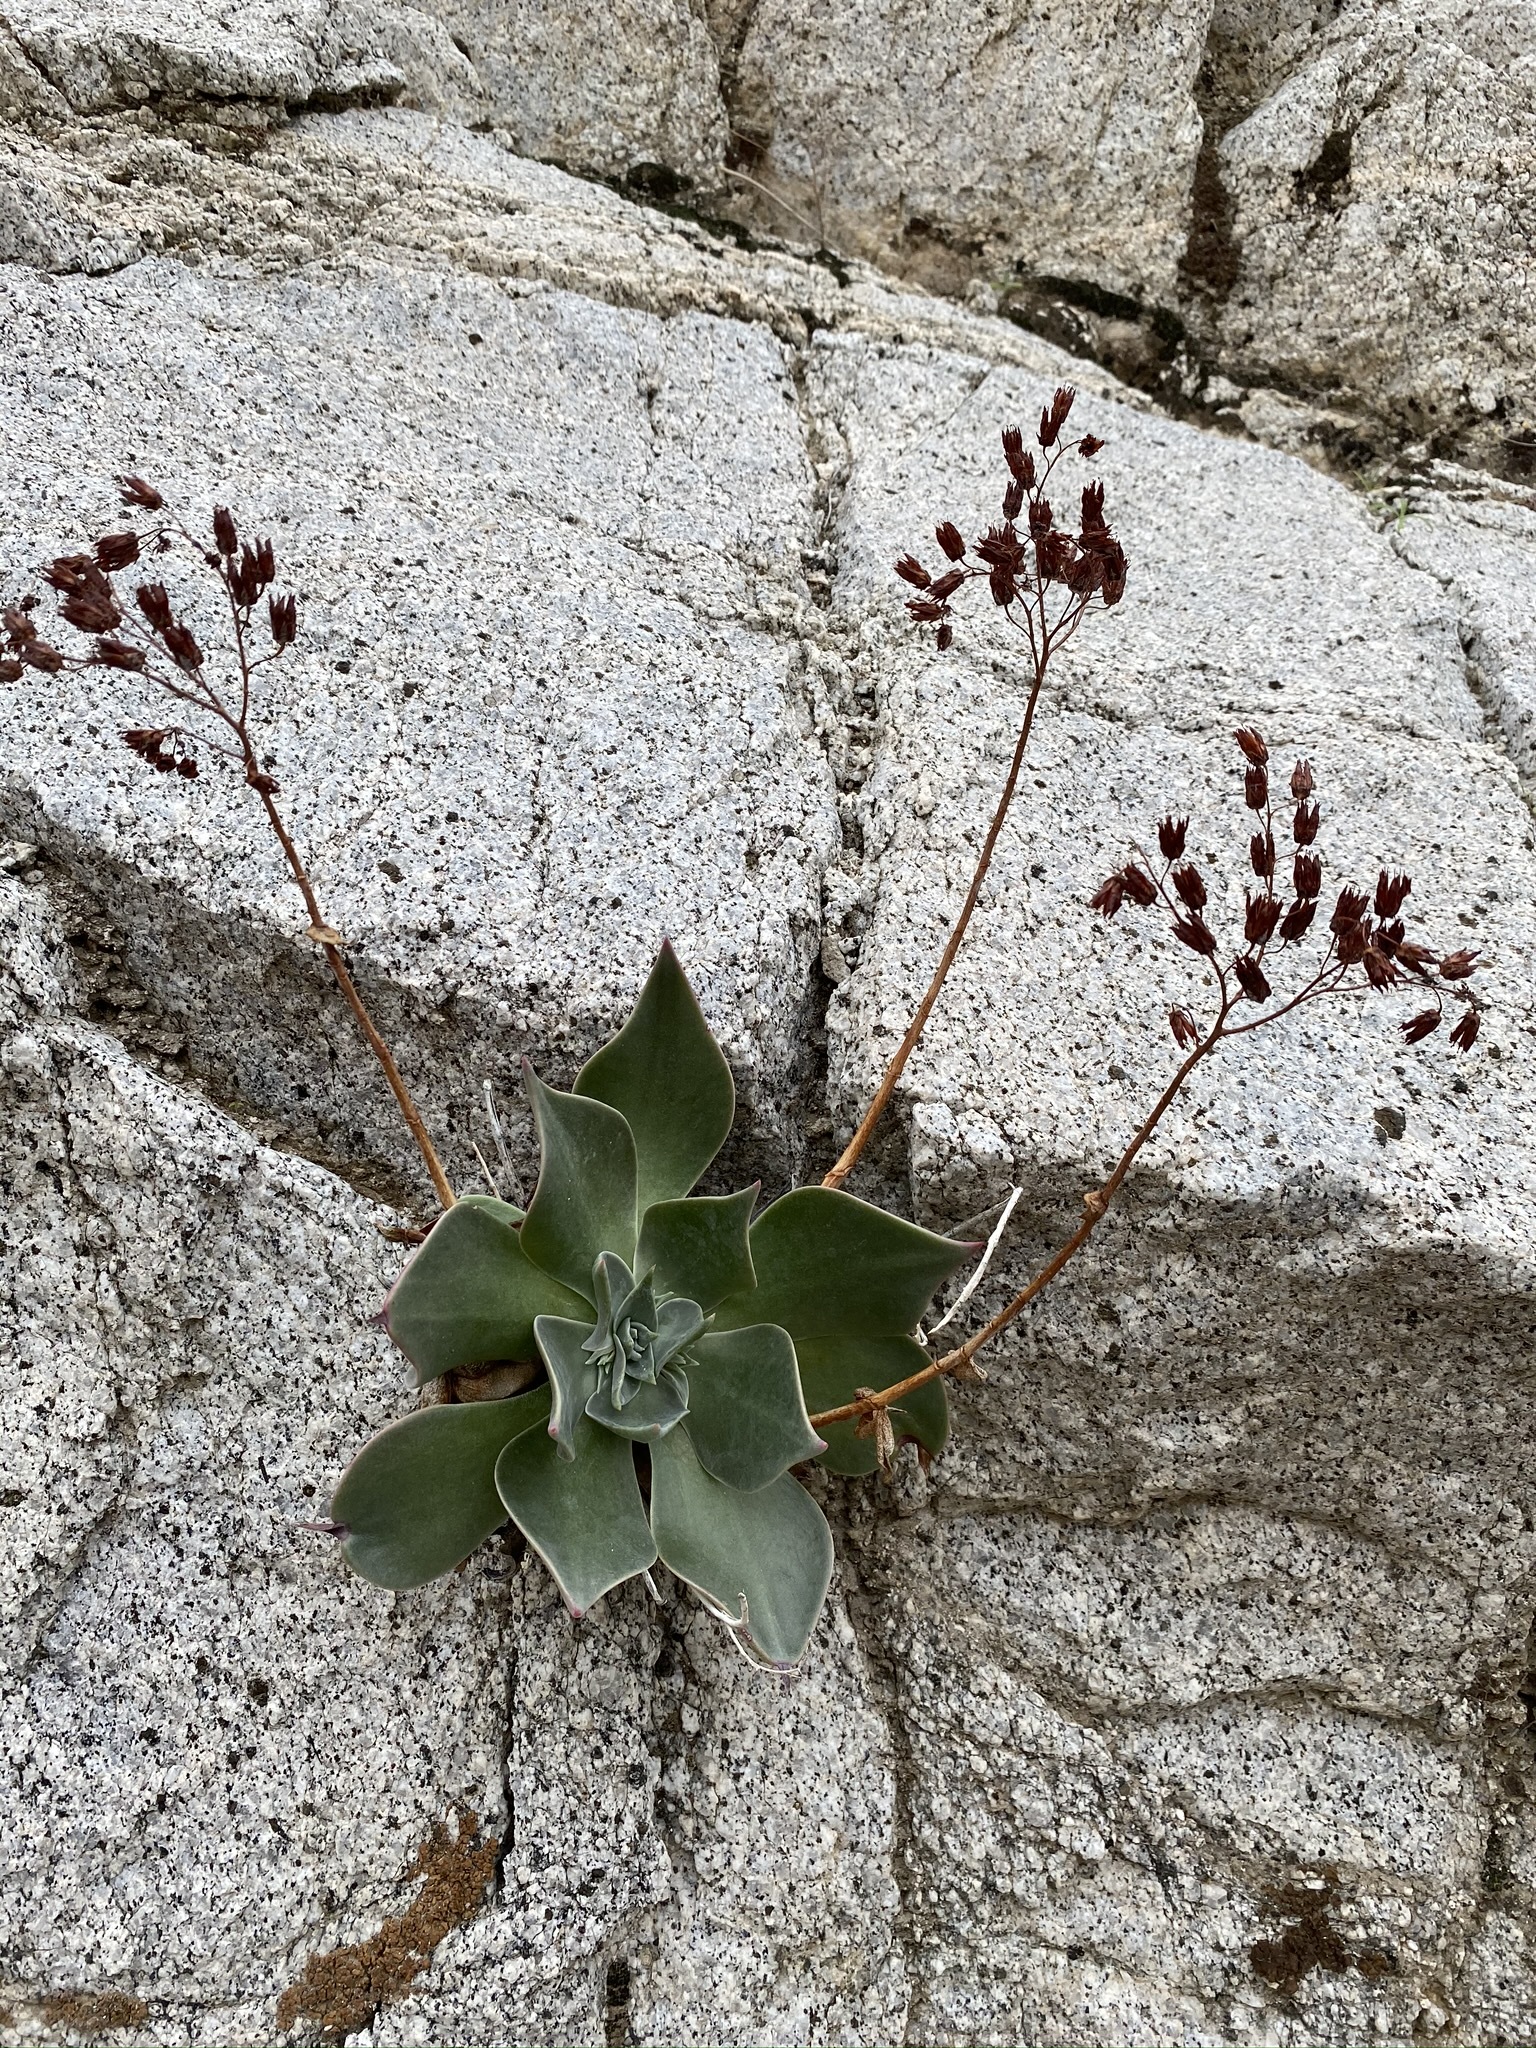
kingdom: Plantae
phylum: Tracheophyta
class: Magnoliopsida
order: Saxifragales
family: Crassulaceae
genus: Dudleya
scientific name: Dudleya arizonica
